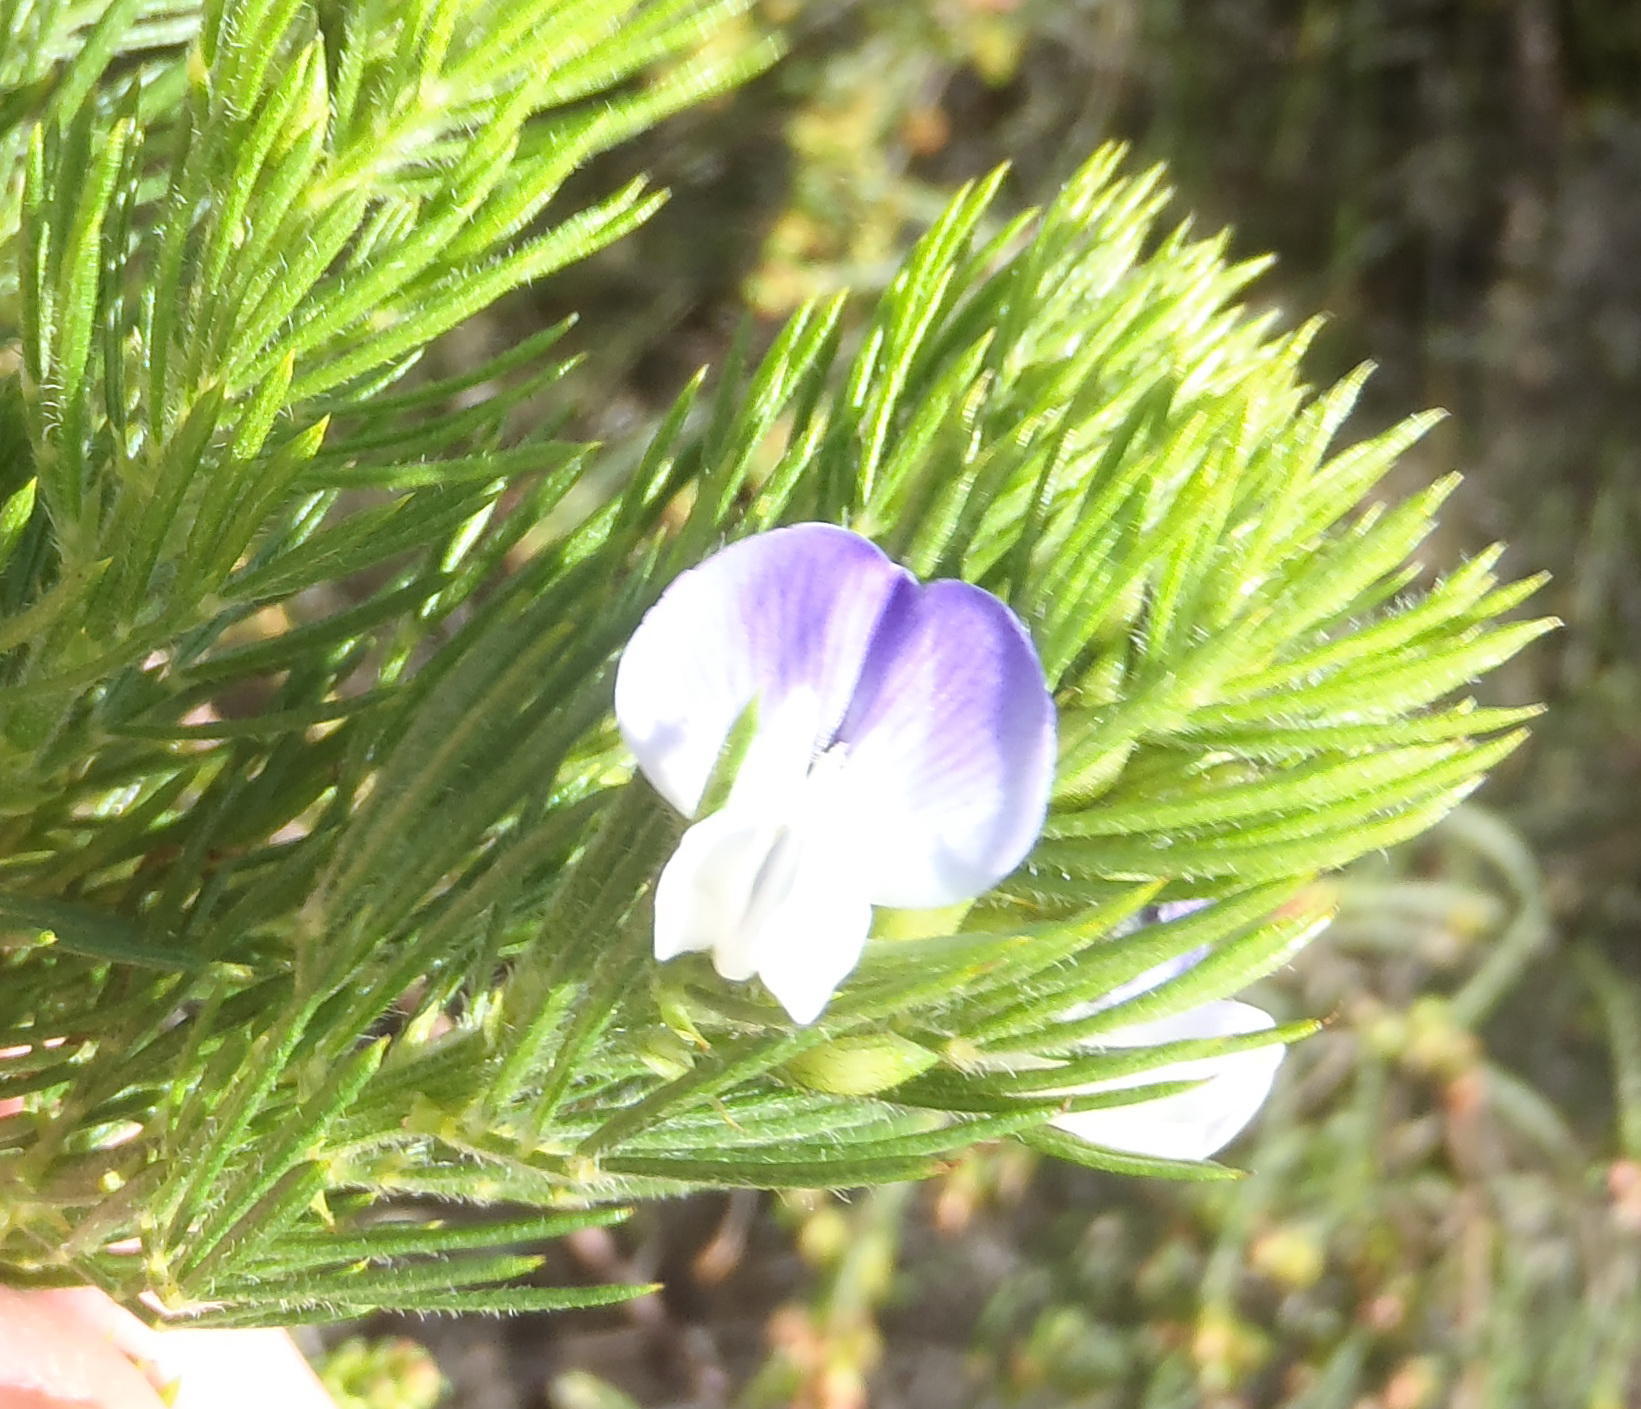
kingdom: Plantae
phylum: Tracheophyta
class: Magnoliopsida
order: Fabales
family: Fabaceae
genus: Psoralea
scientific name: Psoralea pinnata
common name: African scurfpea
